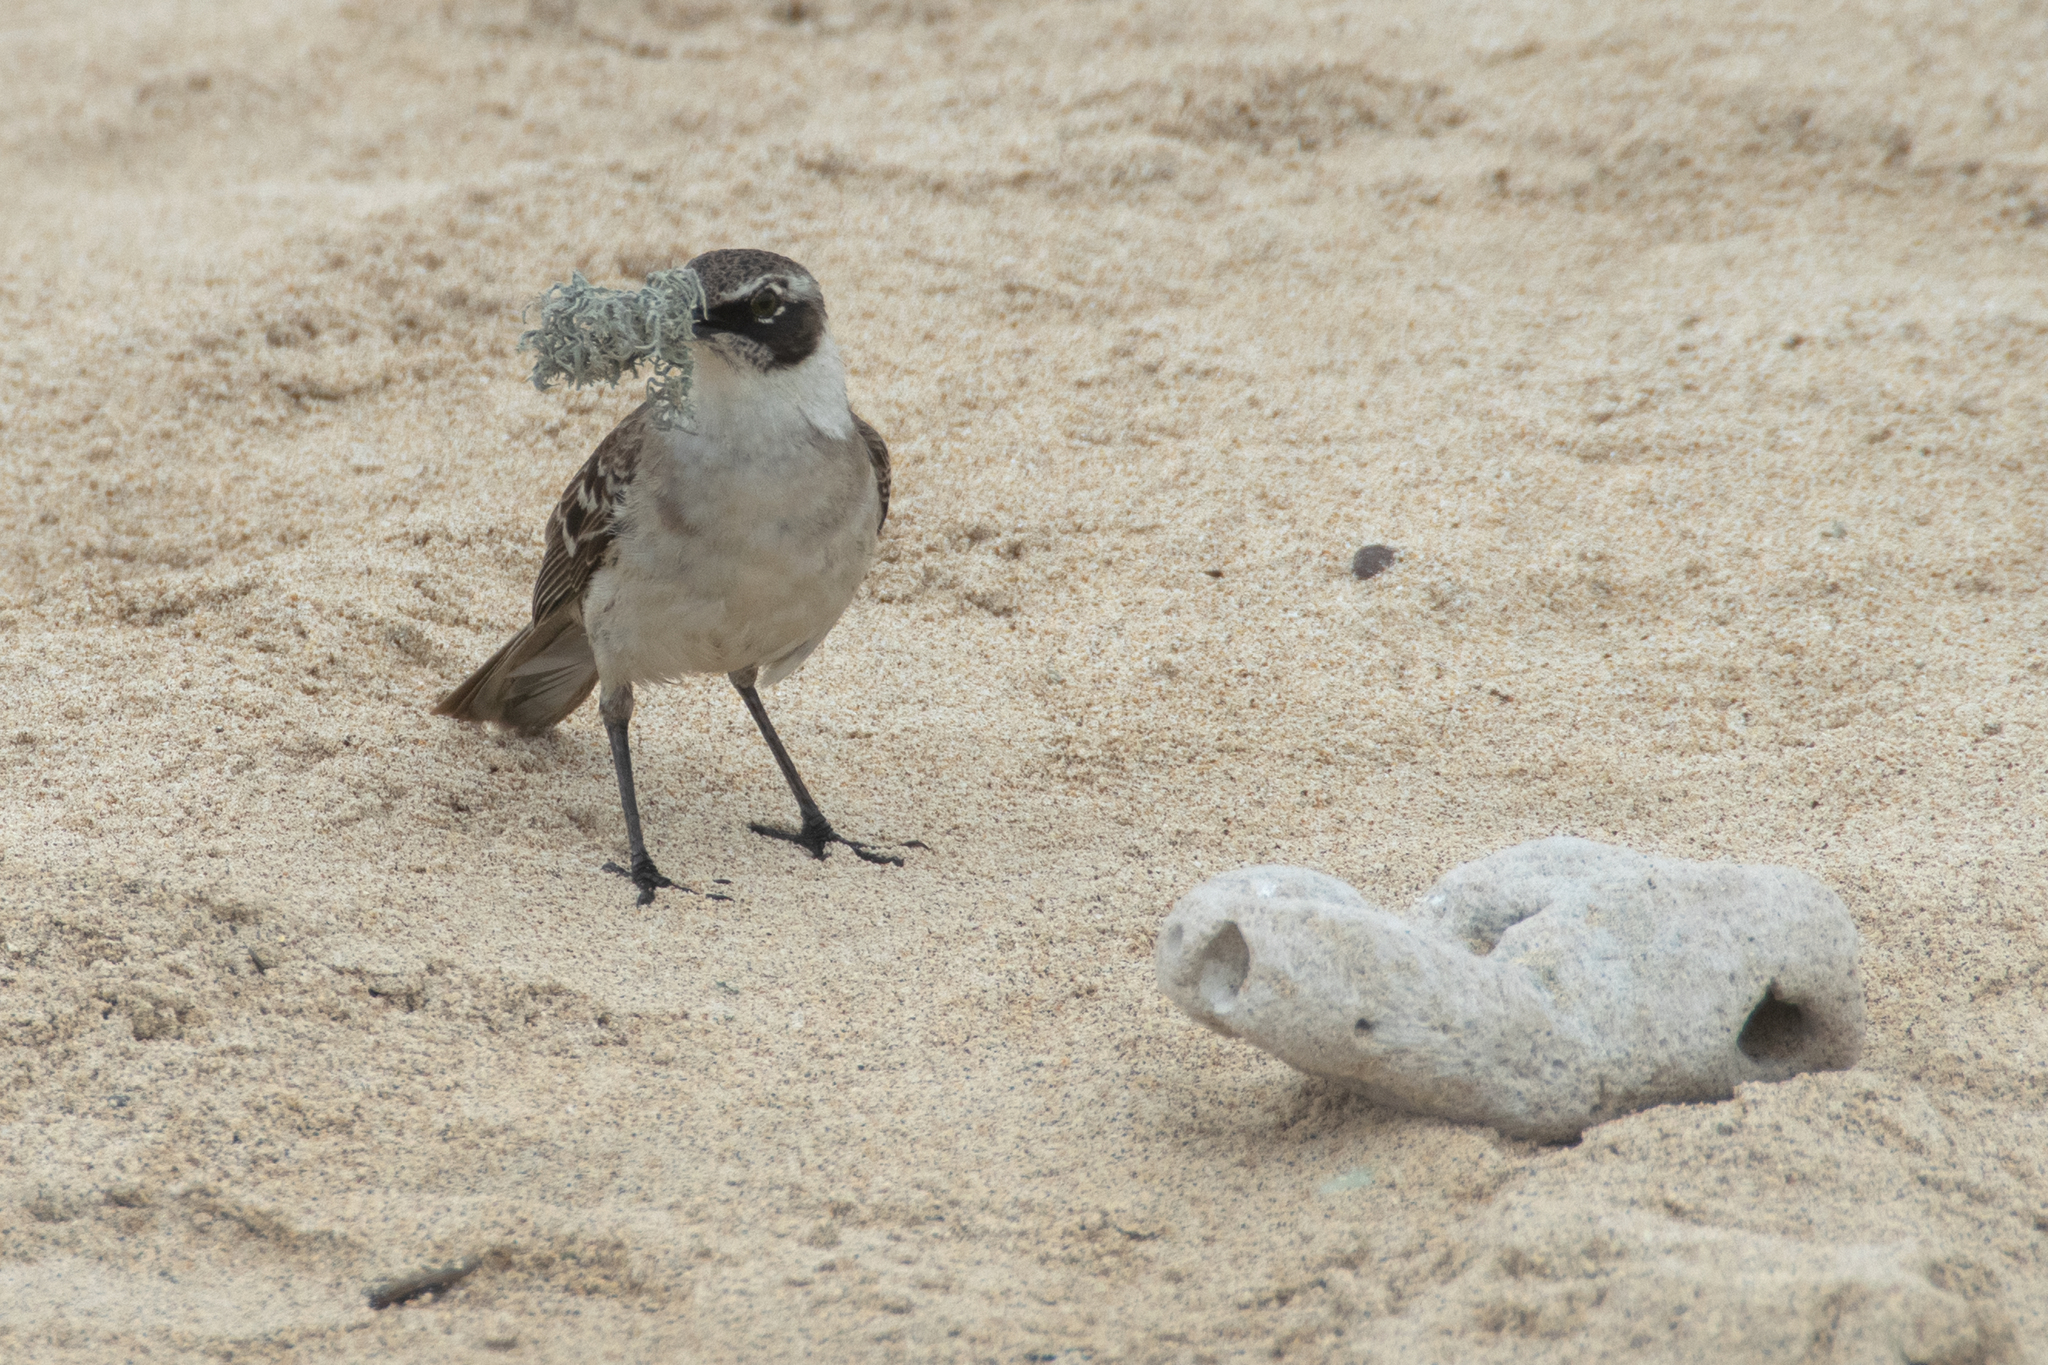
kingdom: Animalia
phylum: Chordata
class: Aves
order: Passeriformes
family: Mimidae
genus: Mimus
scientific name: Mimus parvulus
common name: Galapagos mockingbird
